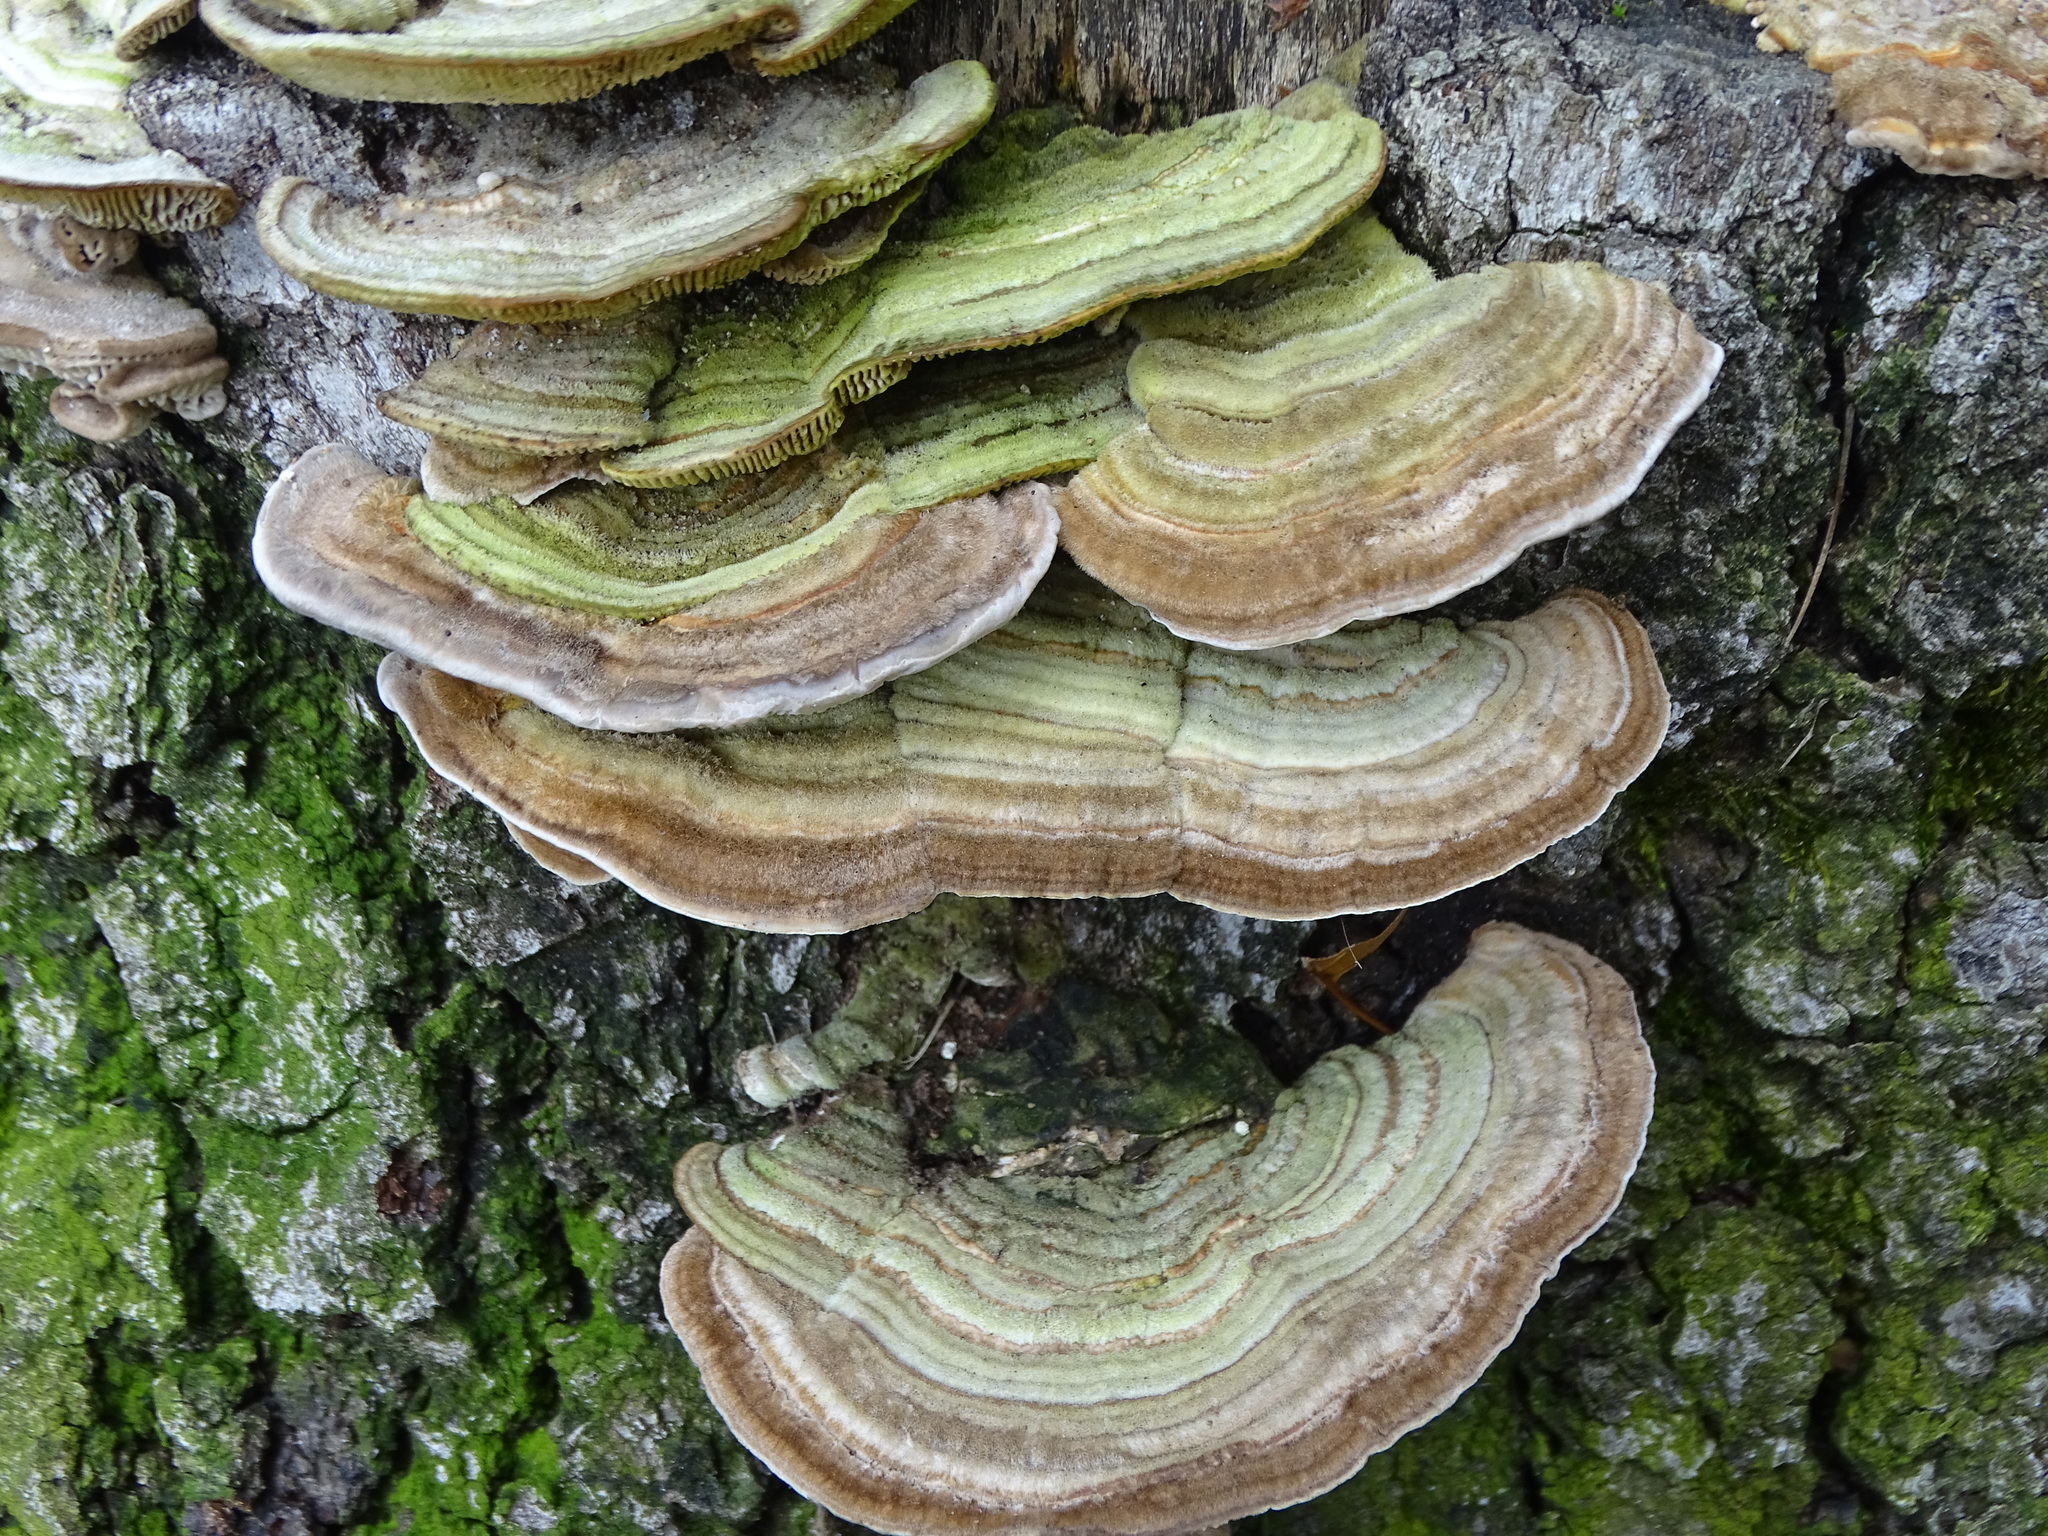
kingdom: Fungi
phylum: Basidiomycota
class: Agaricomycetes
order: Polyporales
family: Polyporaceae
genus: Lenzites
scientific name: Lenzites betulinus
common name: Birch mazegill
